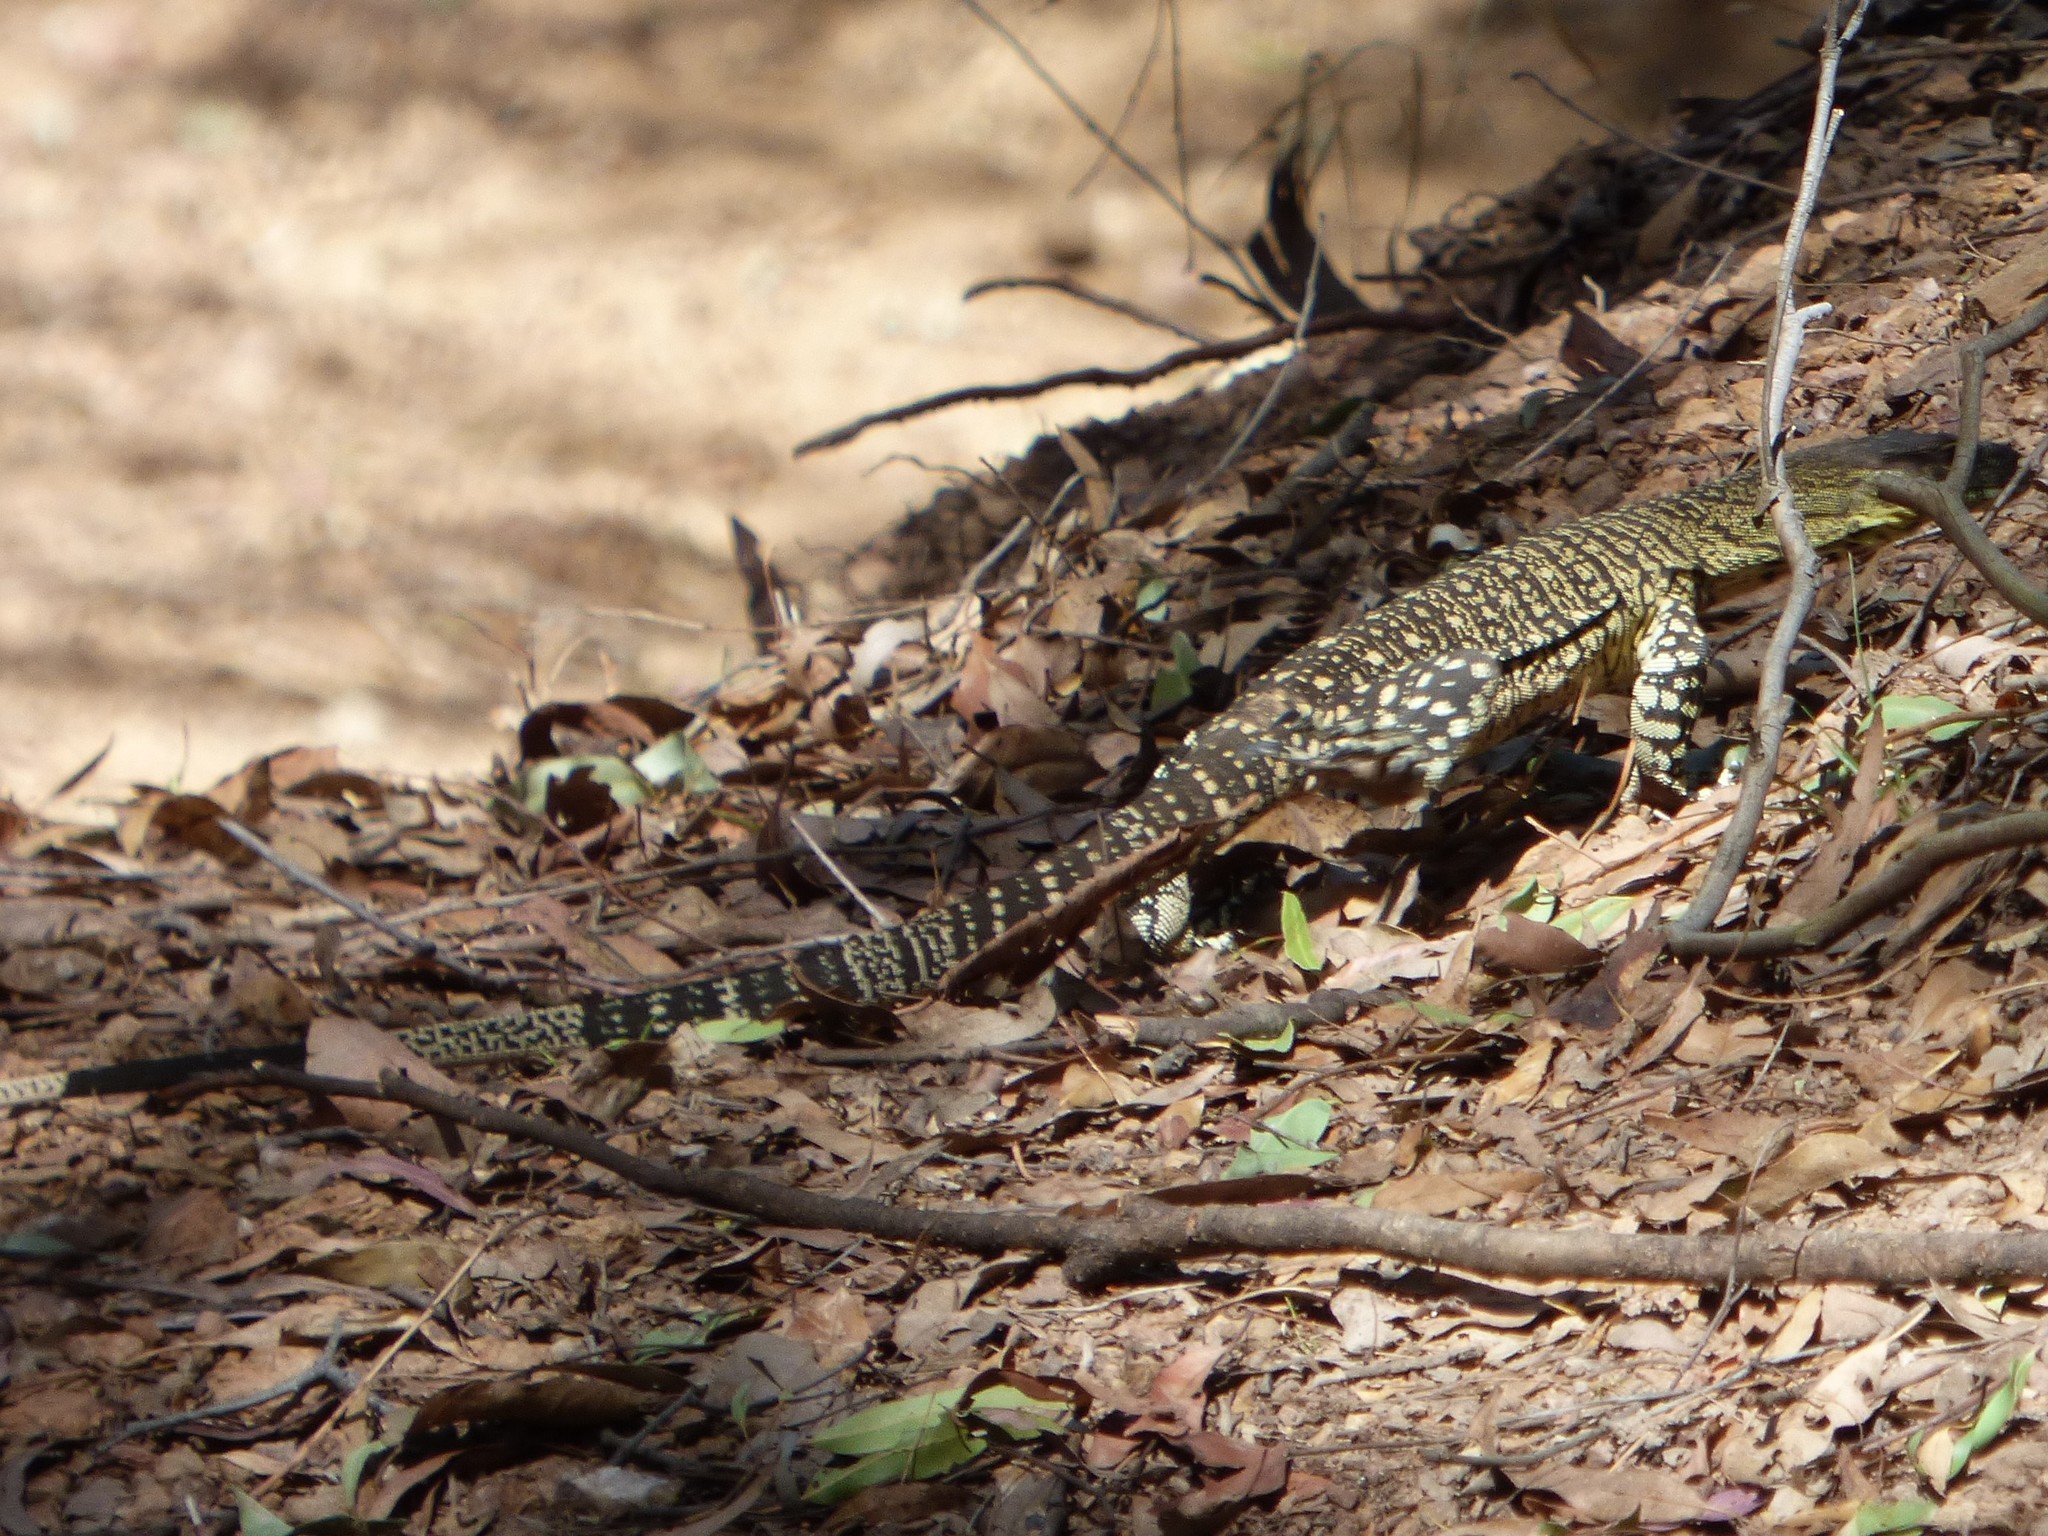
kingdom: Animalia
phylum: Chordata
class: Squamata
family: Varanidae
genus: Varanus
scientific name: Varanus varius
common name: Lace monitor
